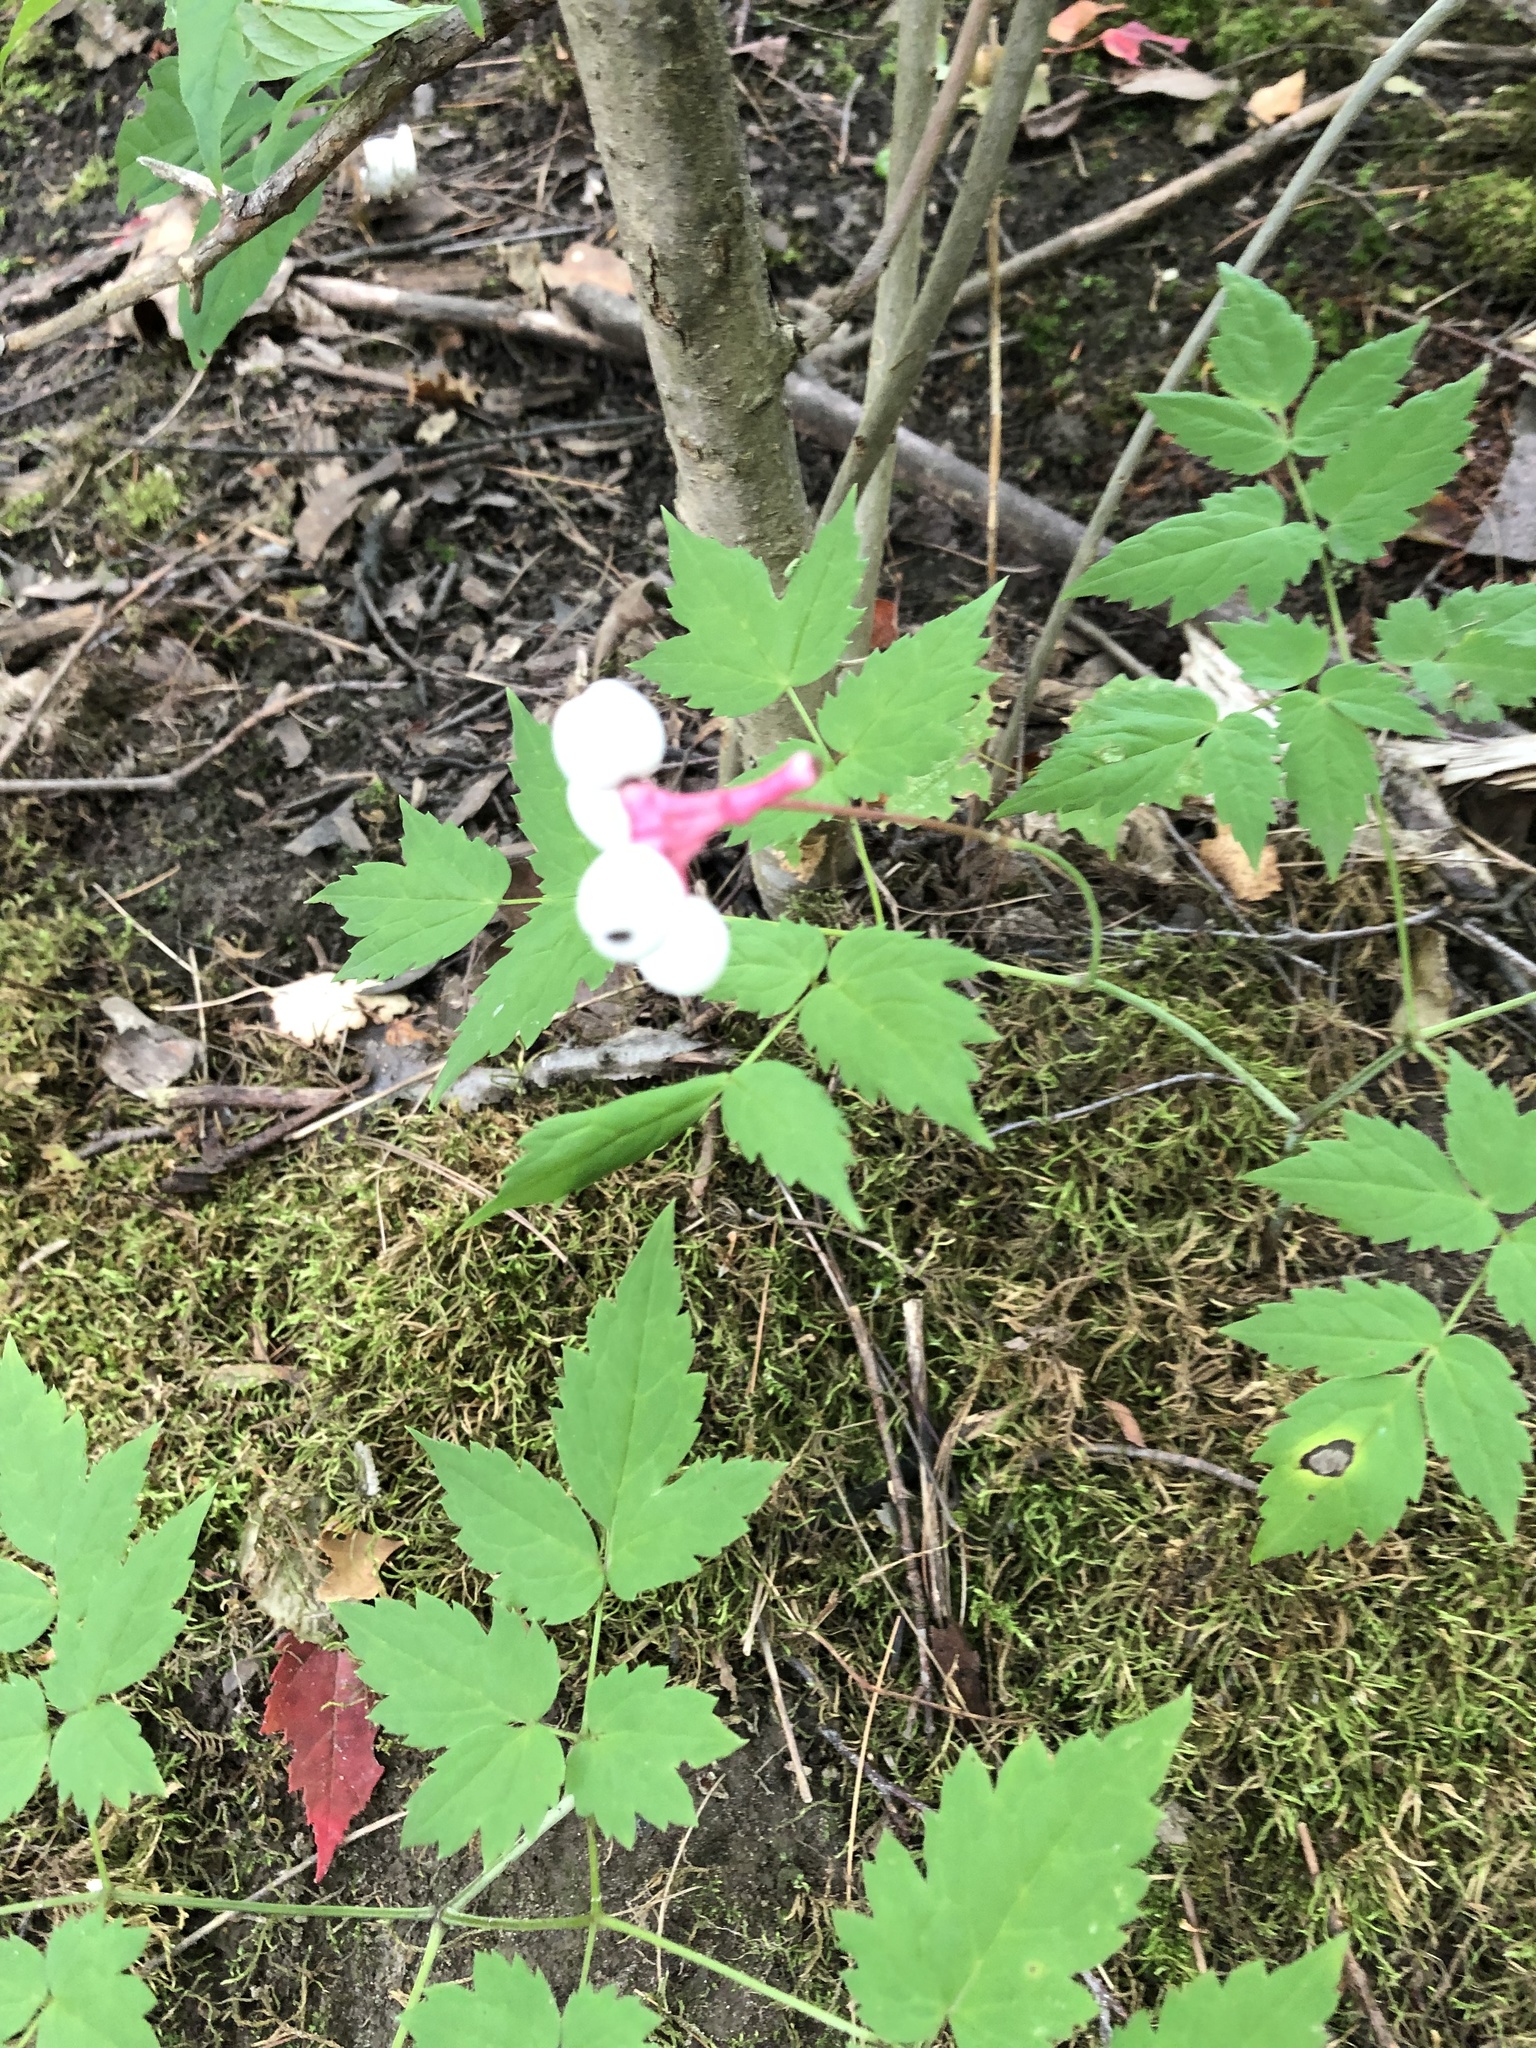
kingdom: Plantae
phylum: Tracheophyta
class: Magnoliopsida
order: Ranunculales
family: Ranunculaceae
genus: Actaea
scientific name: Actaea pachypoda
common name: Doll's-eyes
